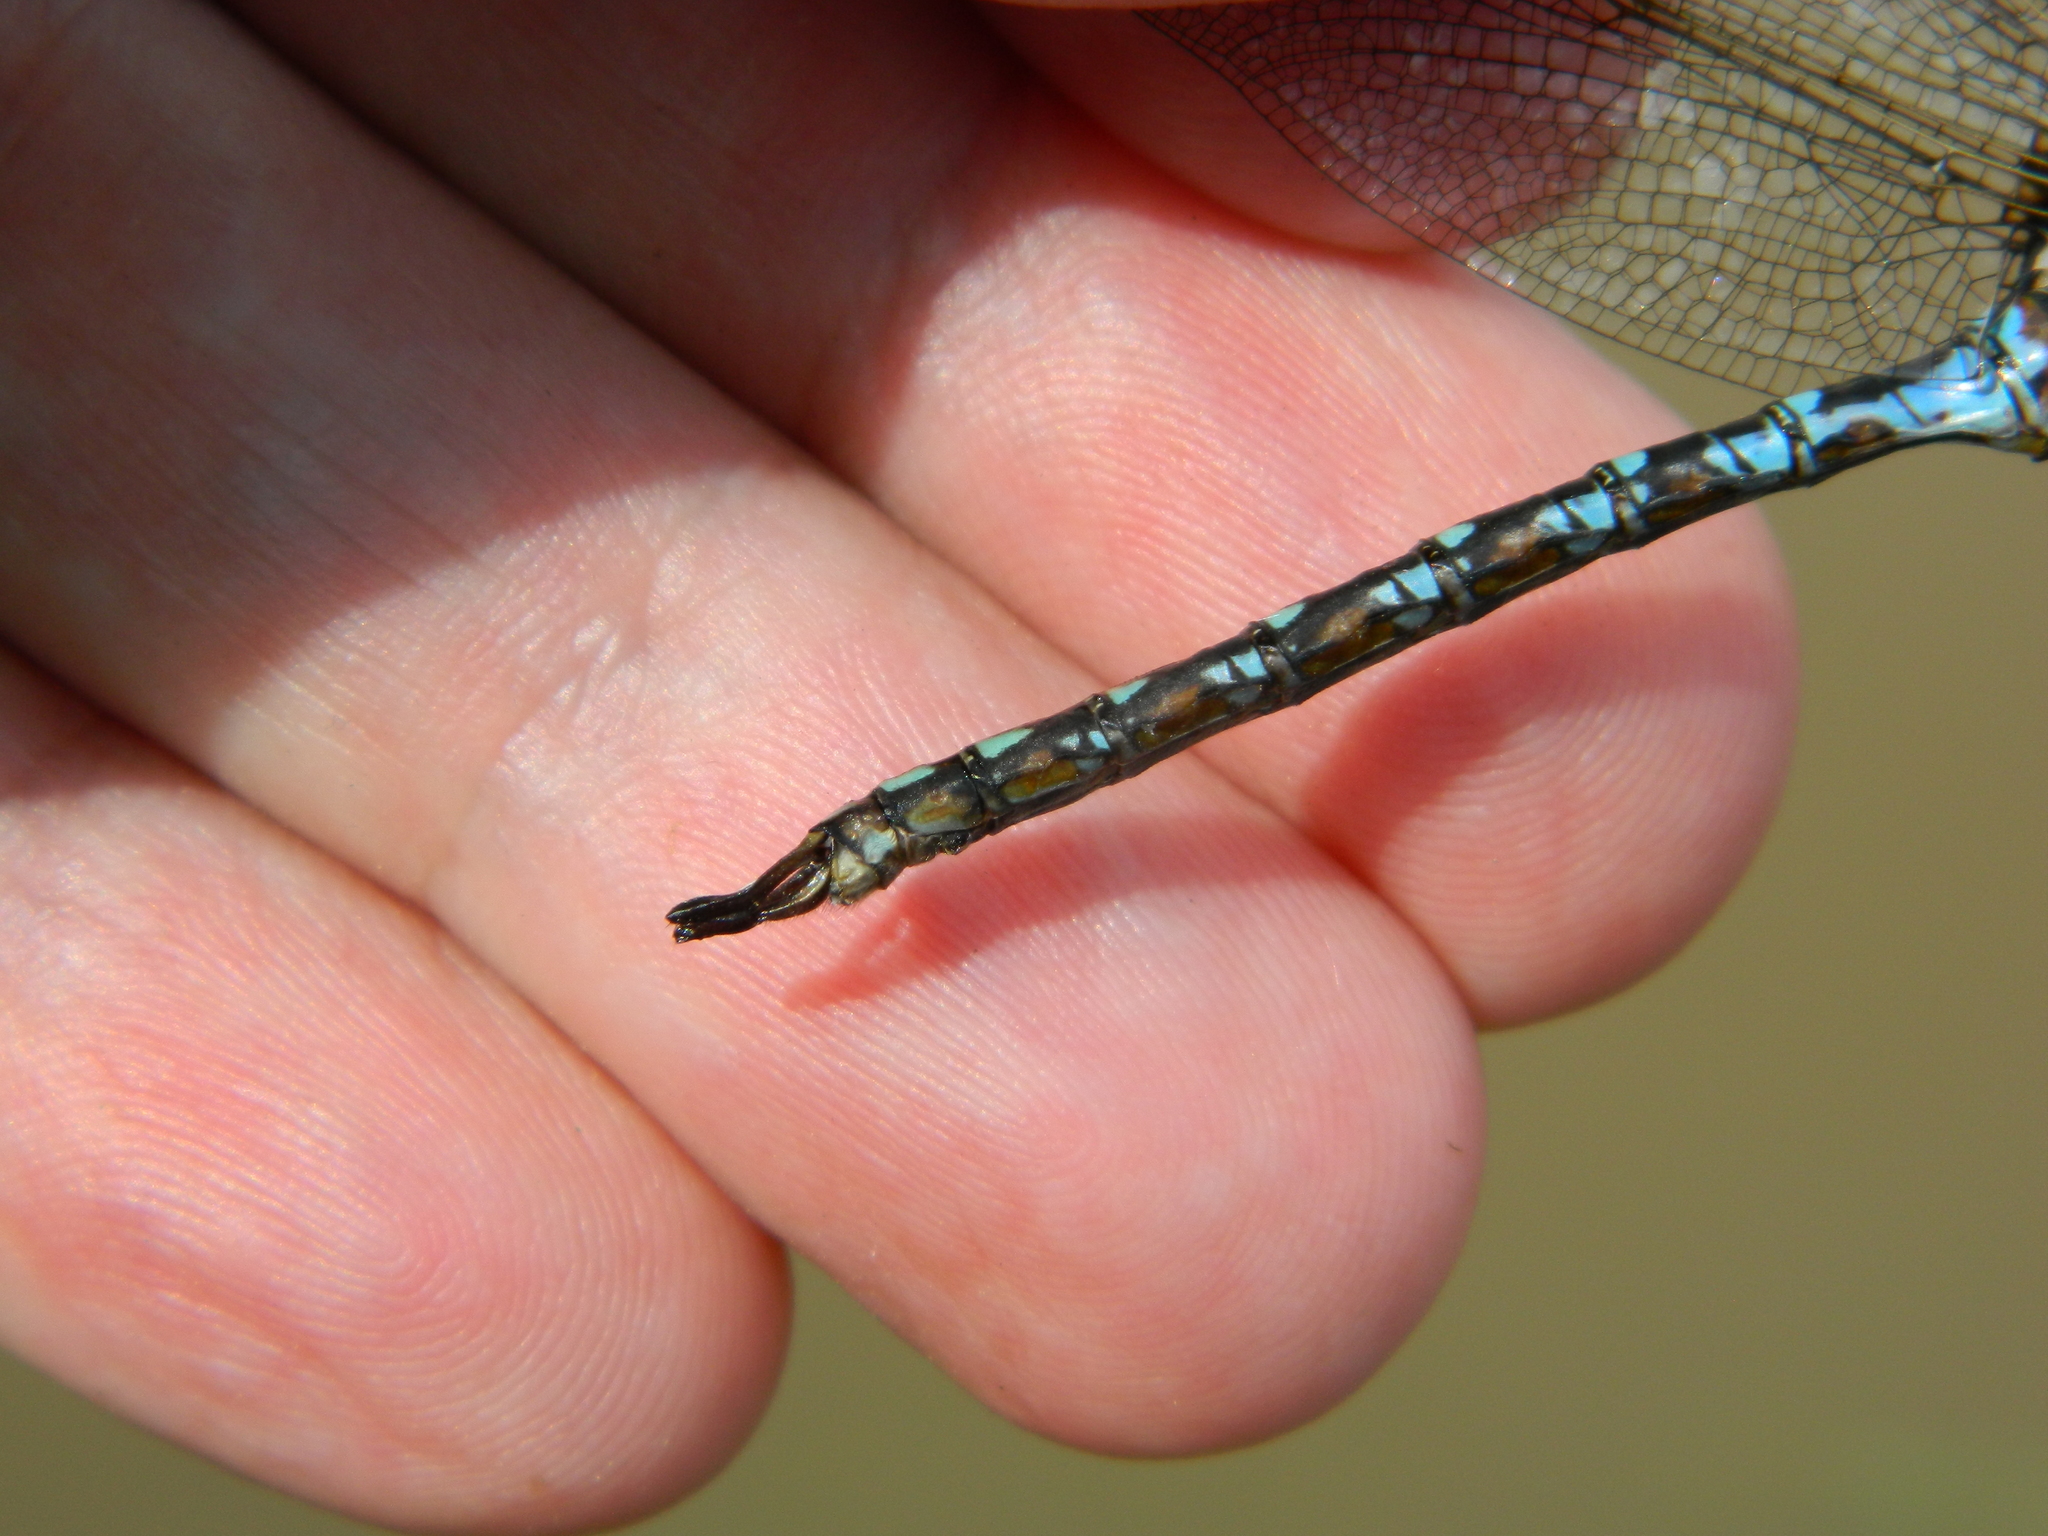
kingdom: Animalia
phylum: Arthropoda
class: Insecta
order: Odonata
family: Aeshnidae
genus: Basiaeschna
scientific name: Basiaeschna janata
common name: Springtime darner
